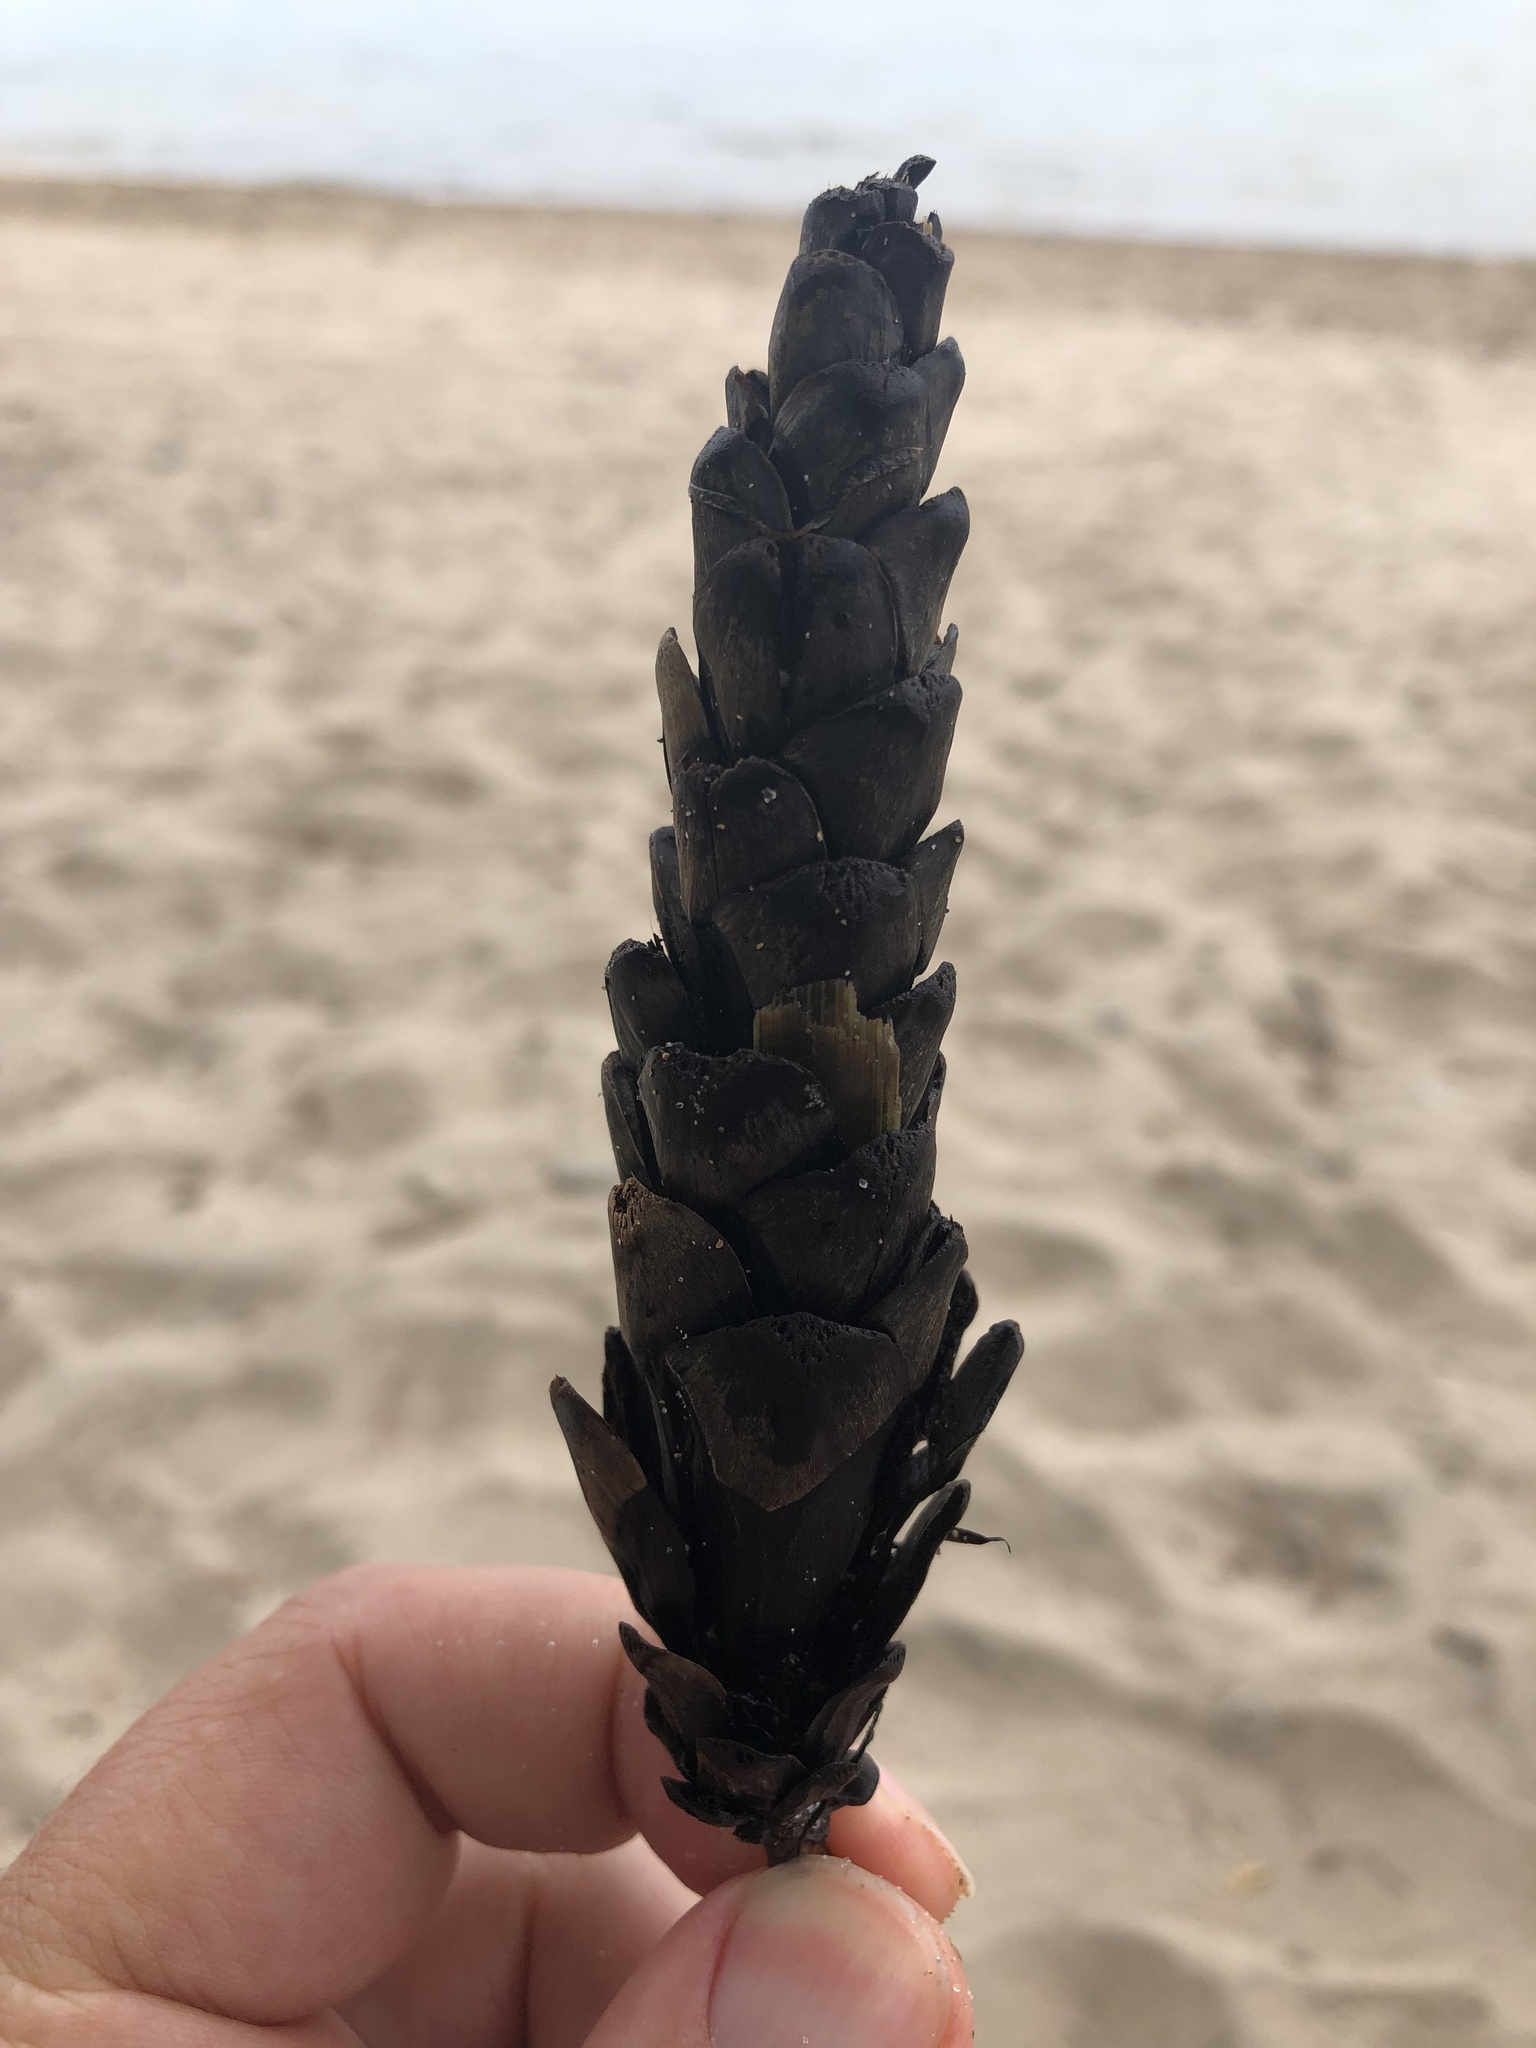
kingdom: Plantae
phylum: Tracheophyta
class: Pinopsida
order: Pinales
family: Pinaceae
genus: Pinus
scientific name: Pinus strobus
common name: Weymouth pine
